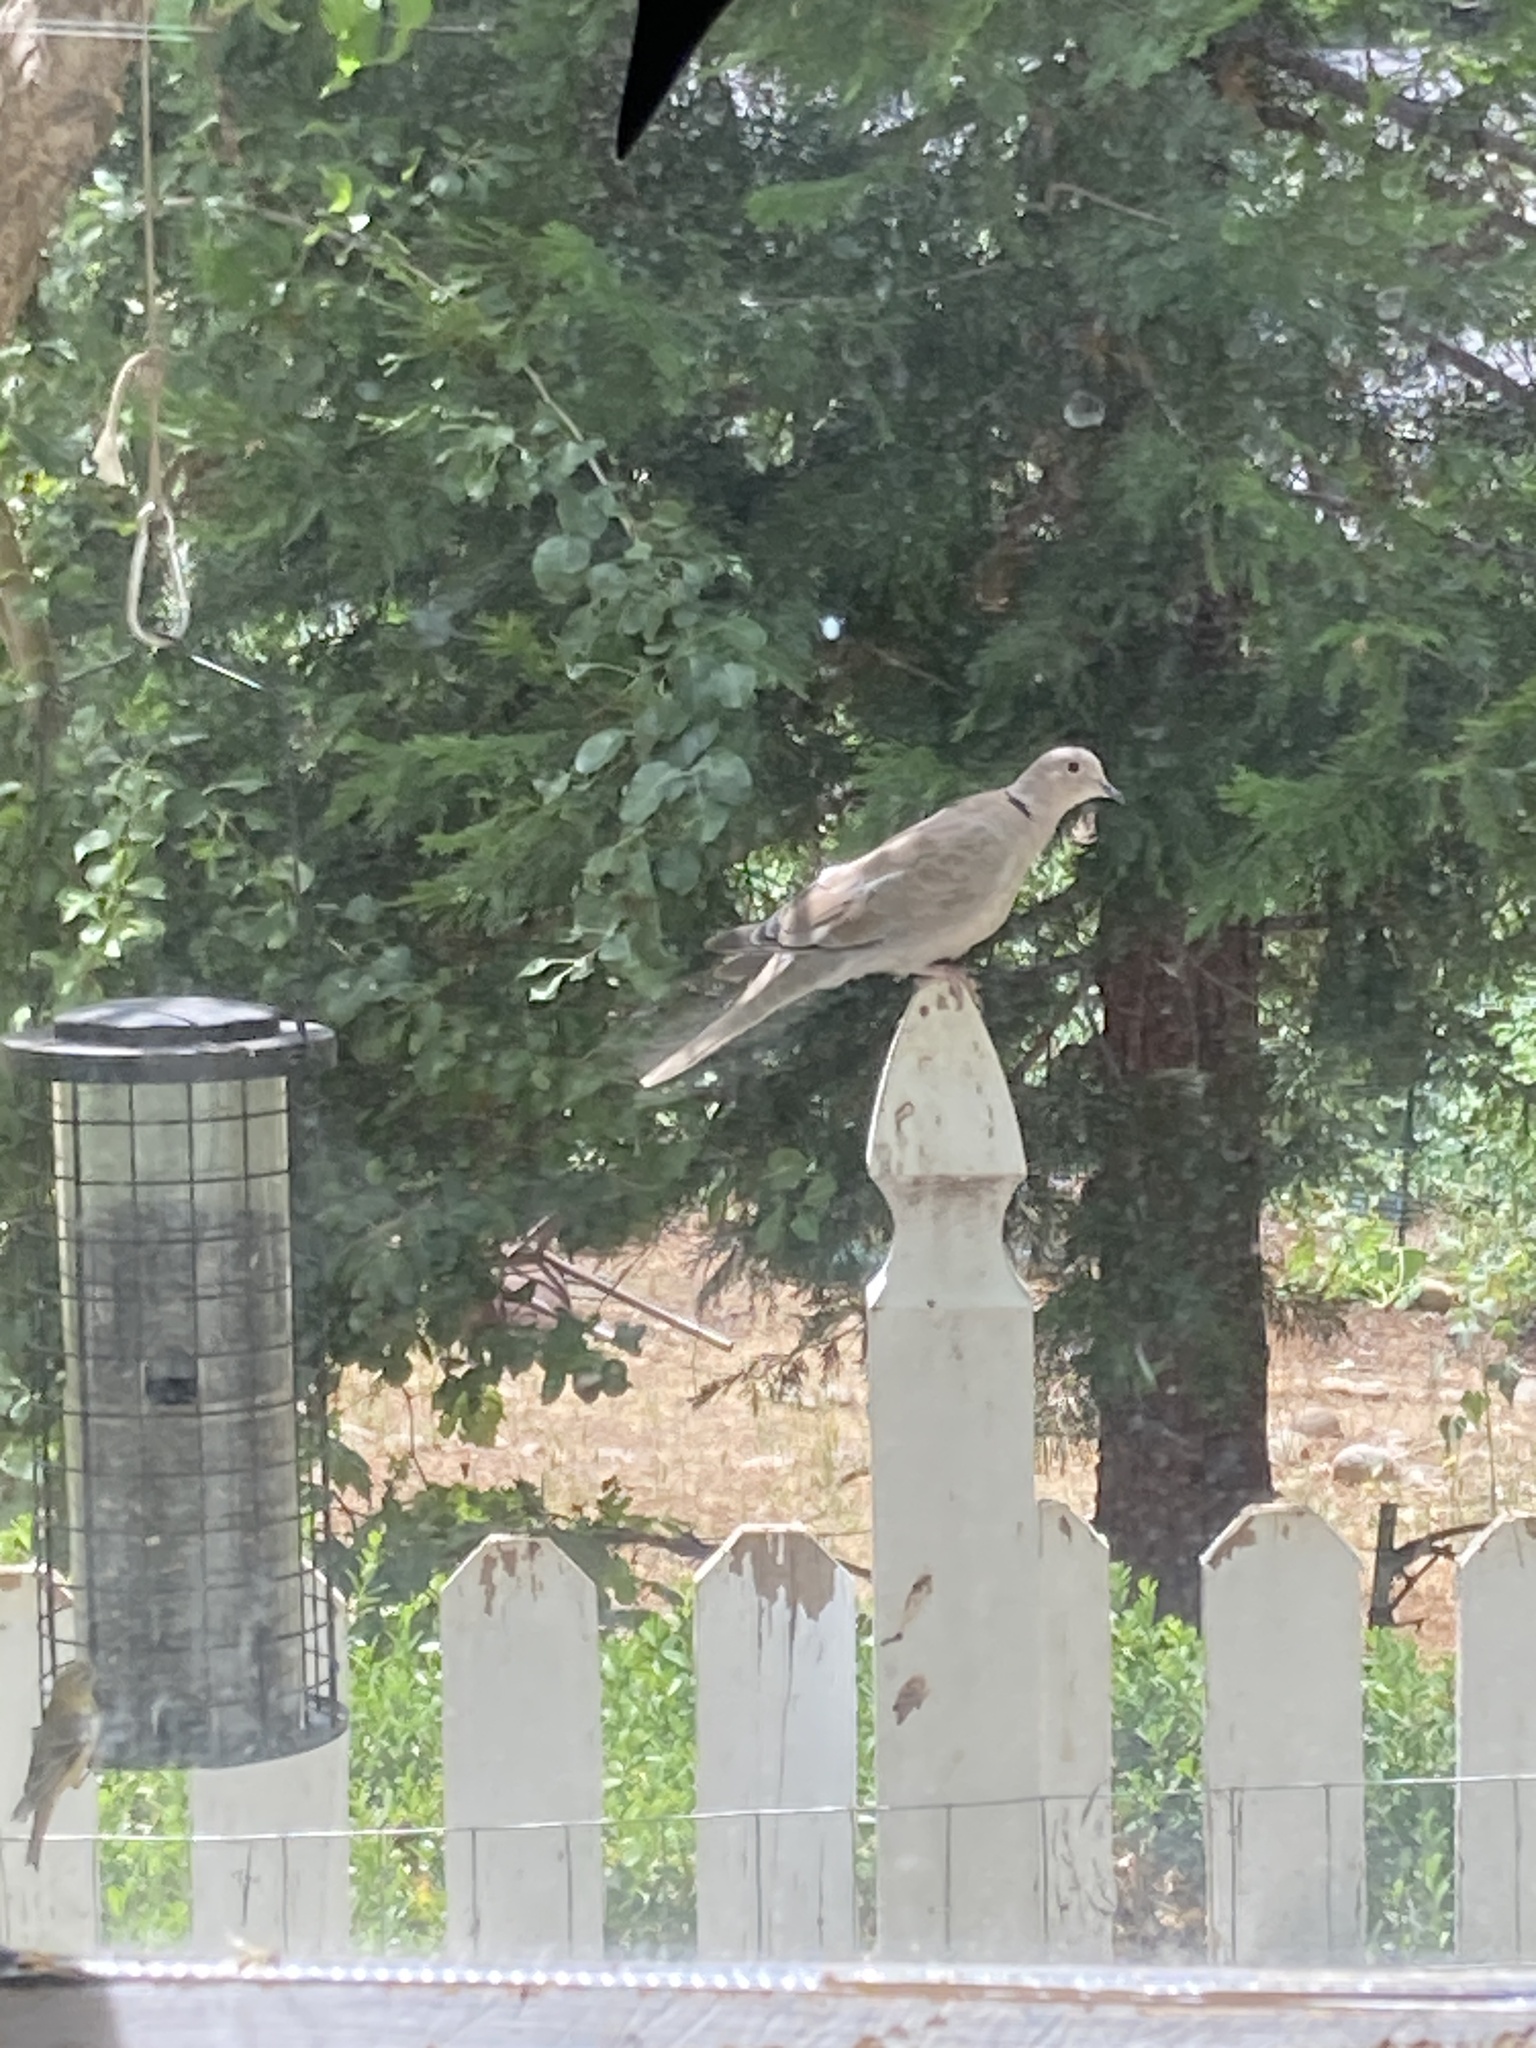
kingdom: Animalia
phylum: Chordata
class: Aves
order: Columbiformes
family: Columbidae
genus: Streptopelia
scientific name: Streptopelia decaocto
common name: Eurasian collared dove
